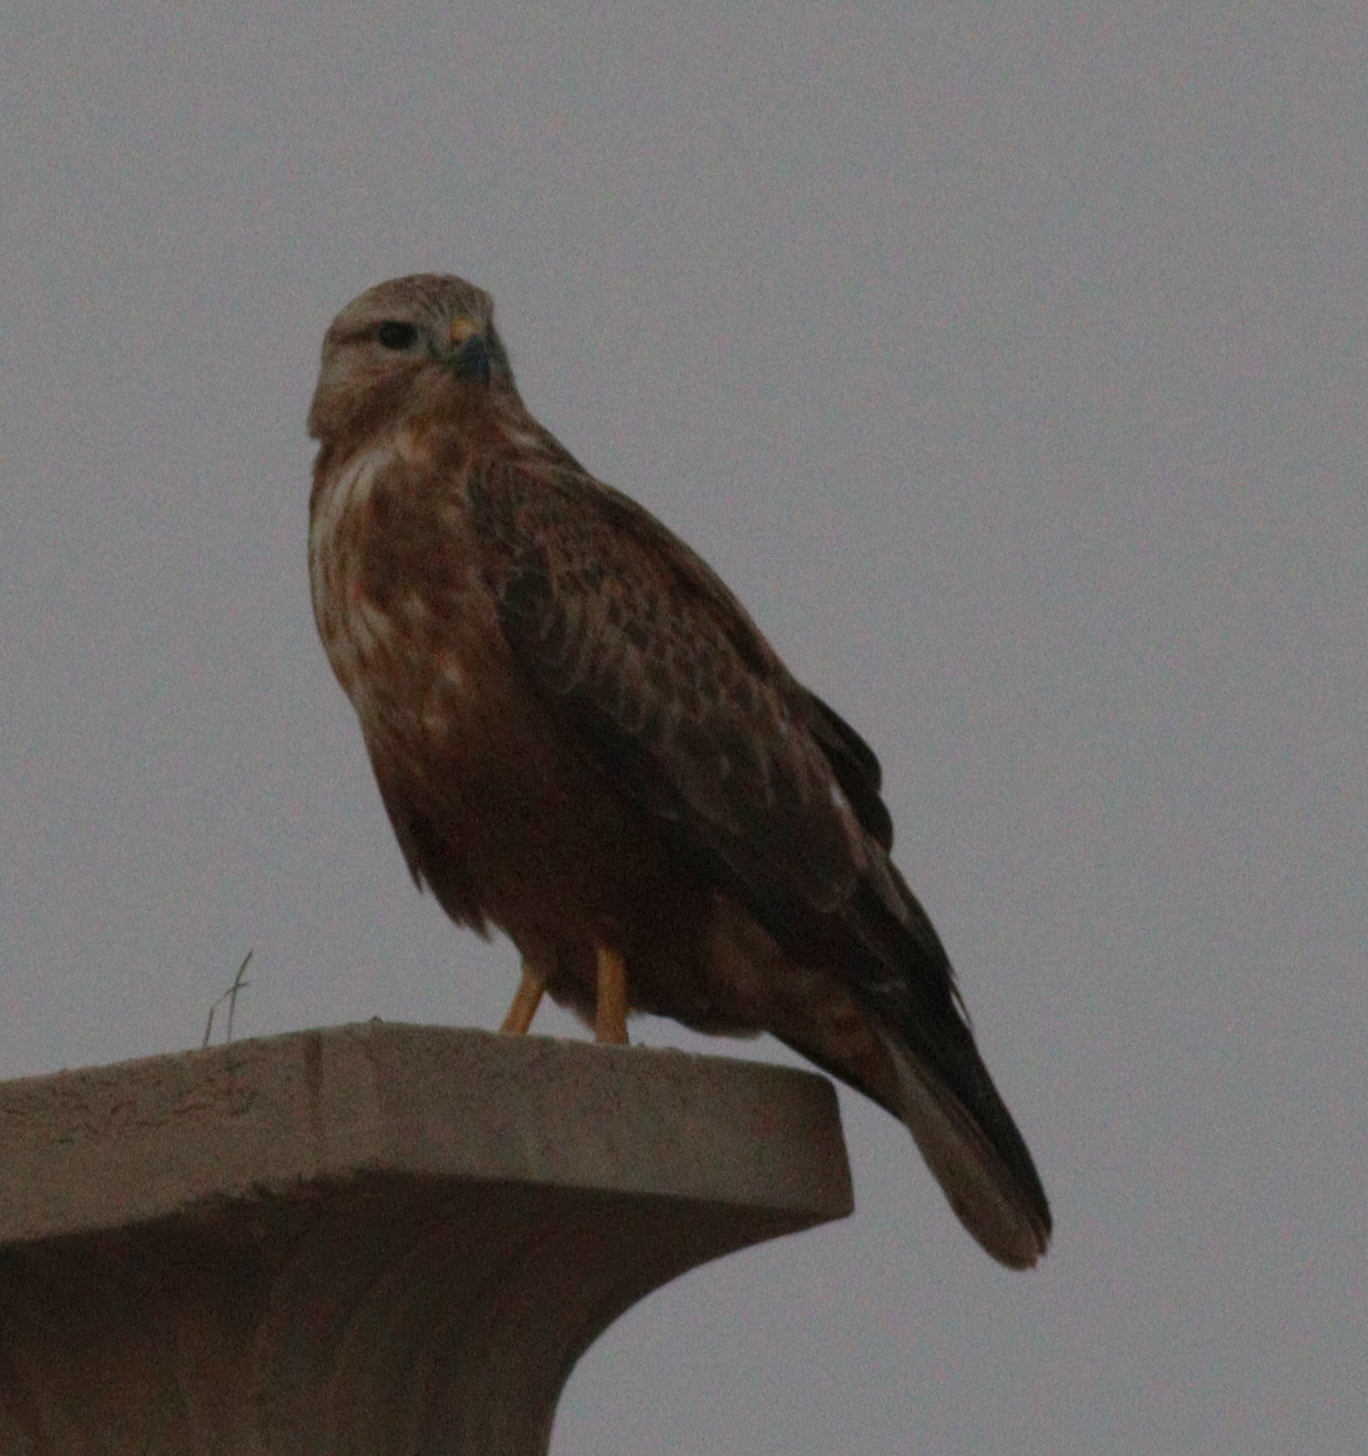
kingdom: Animalia
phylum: Chordata
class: Aves
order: Accipitriformes
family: Accipitridae
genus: Buteo
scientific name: Buteo rufinus
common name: Long-legged buzzard
